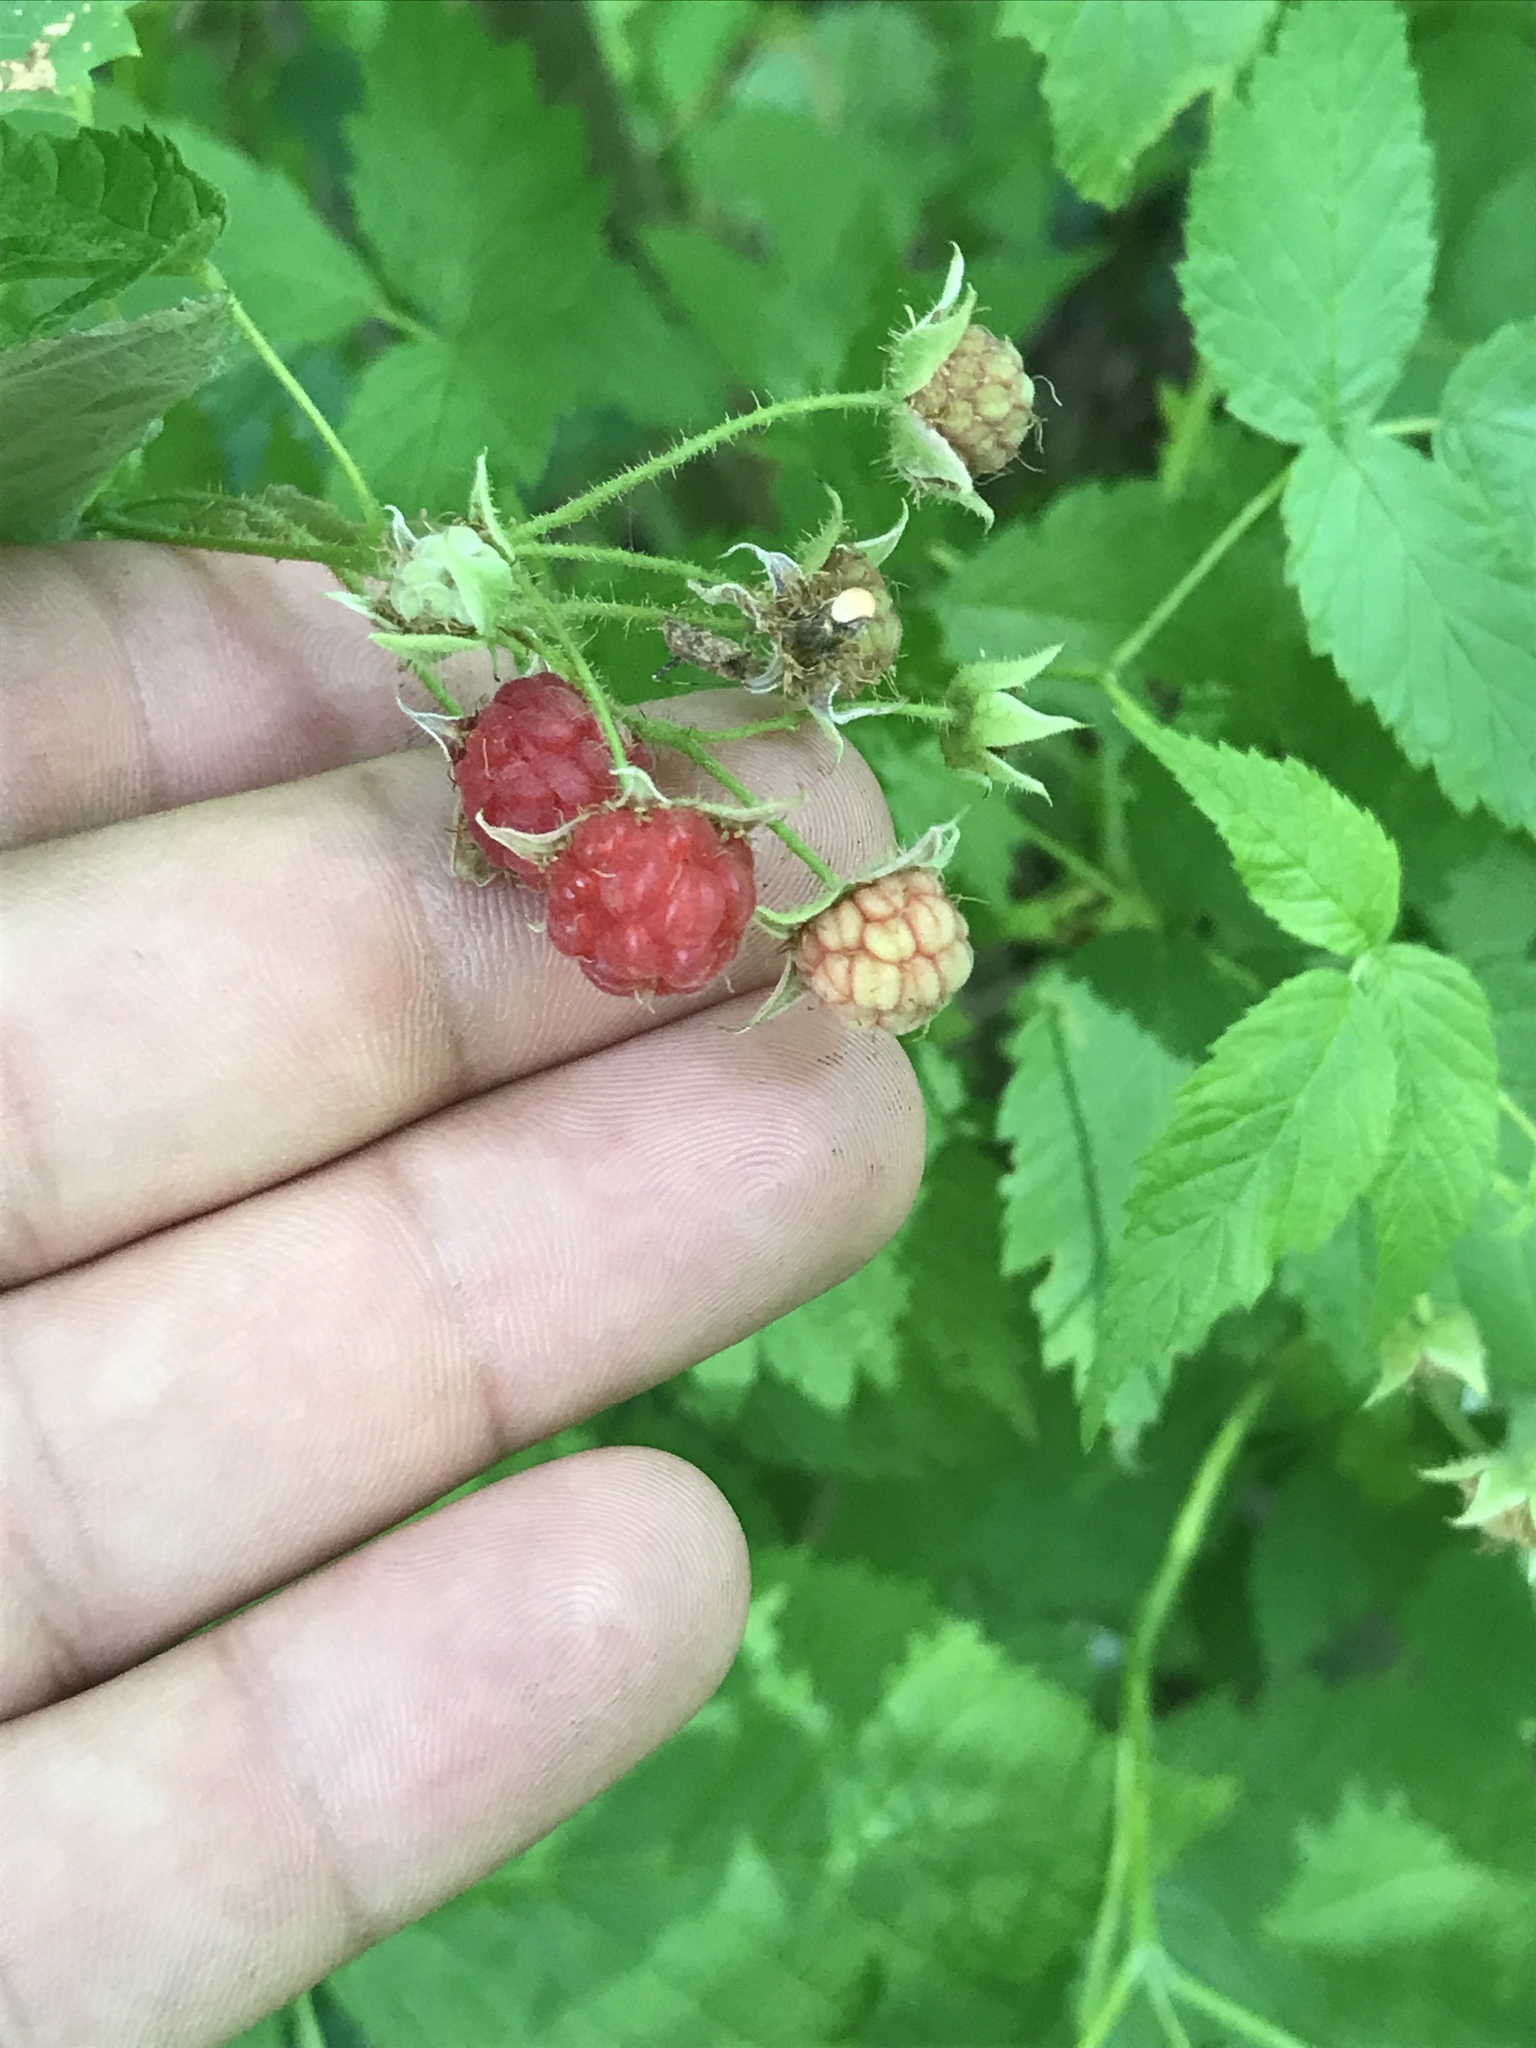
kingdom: Plantae
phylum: Tracheophyta
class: Magnoliopsida
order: Rosales
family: Rosaceae
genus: Rubus
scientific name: Rubus idaeus
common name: Raspberry
